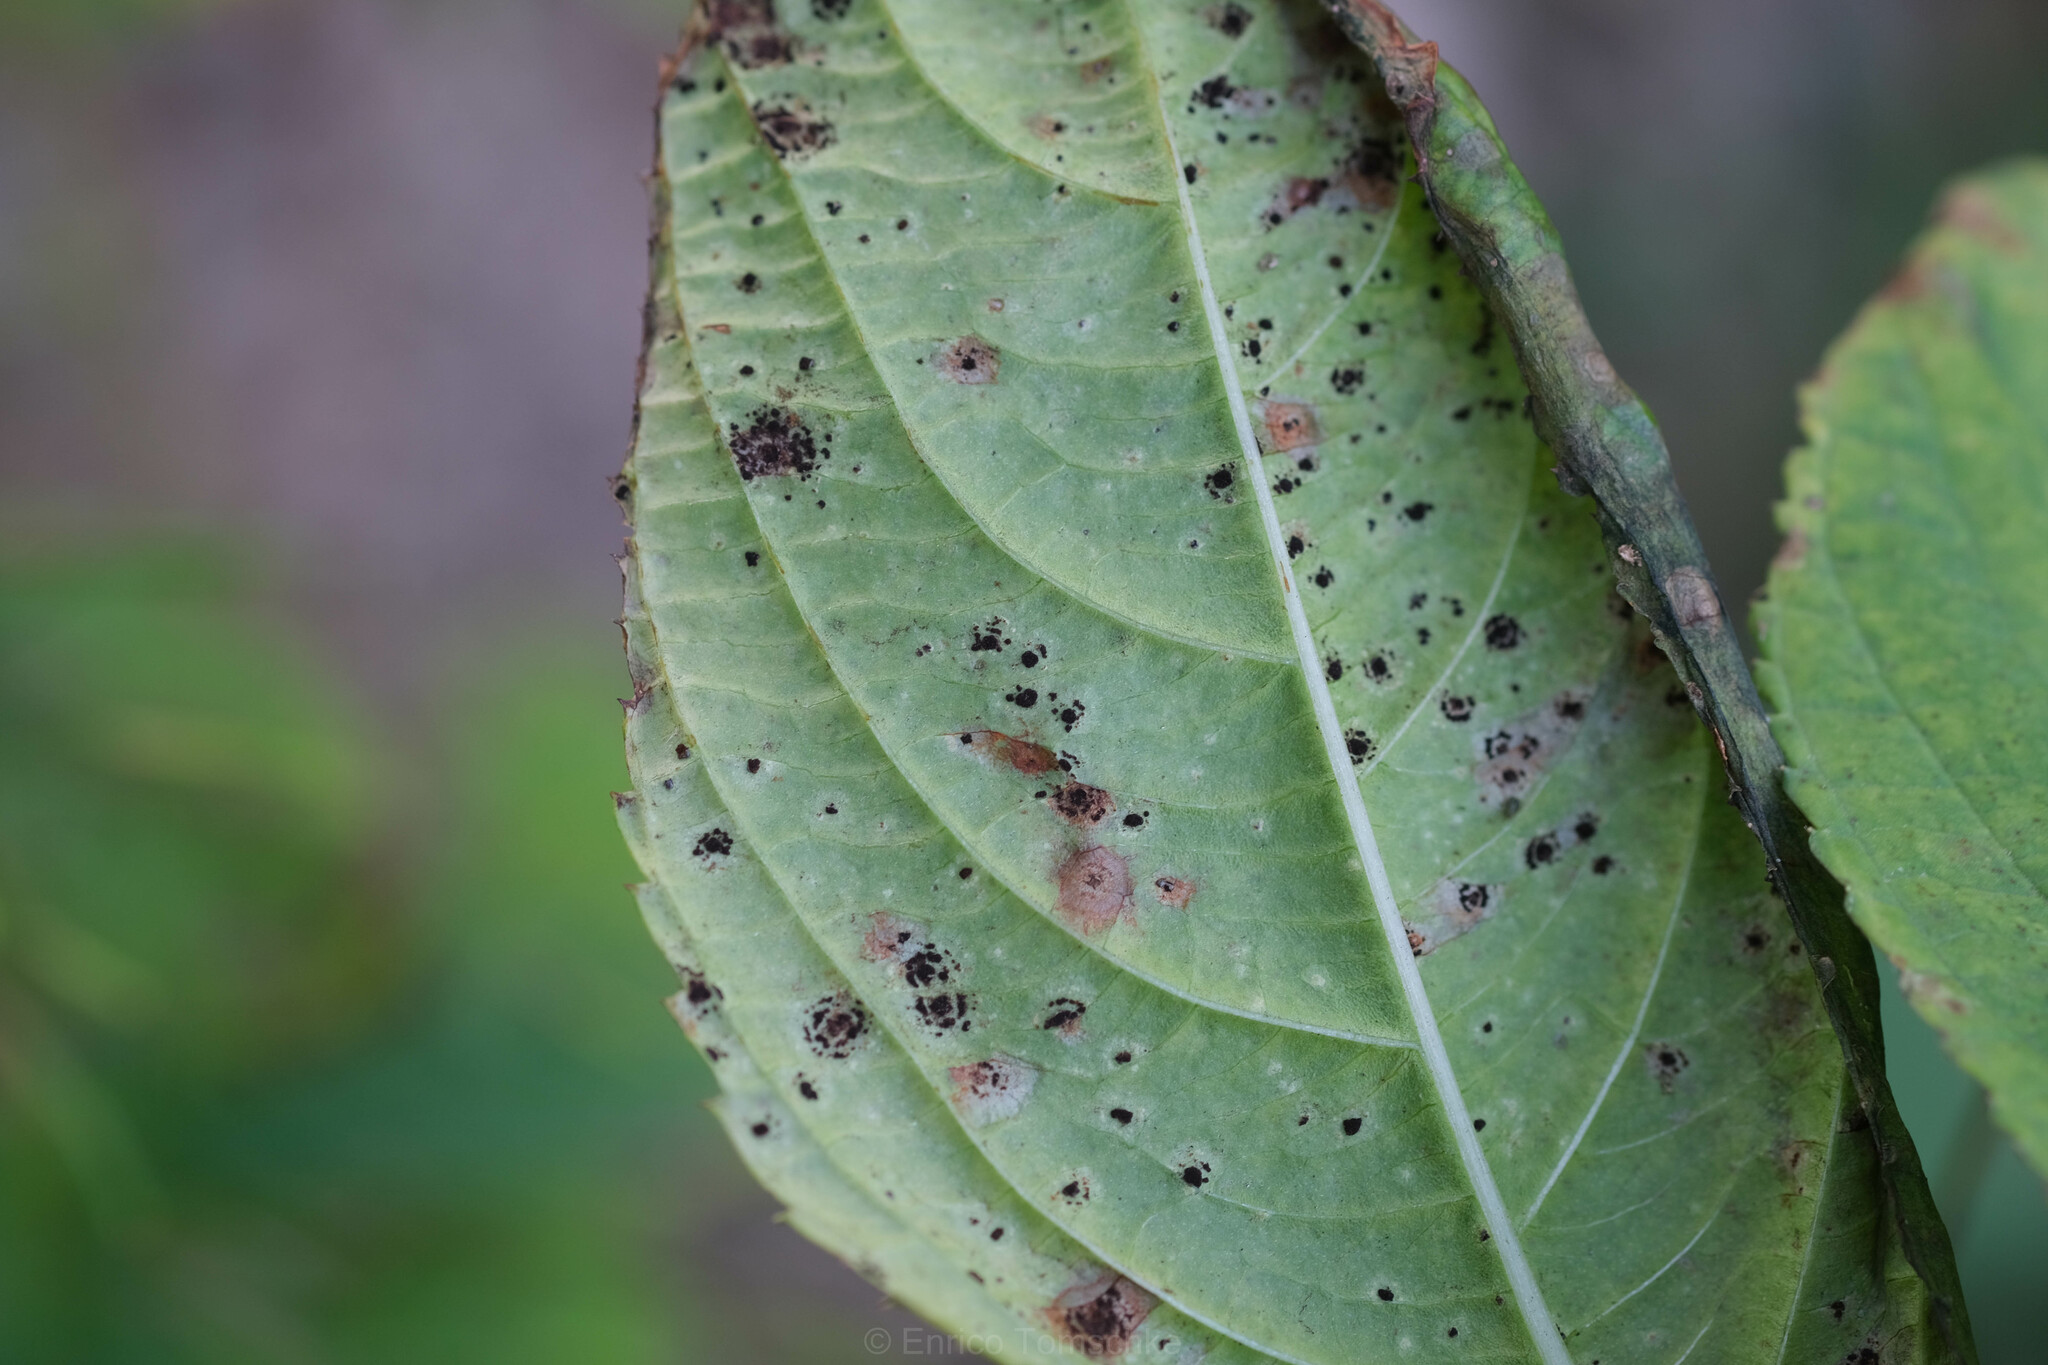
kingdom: Fungi
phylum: Basidiomycota
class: Pucciniomycetes
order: Pucciniales
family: Pucciniaceae
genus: Puccinia
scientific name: Puccinia komarovii
